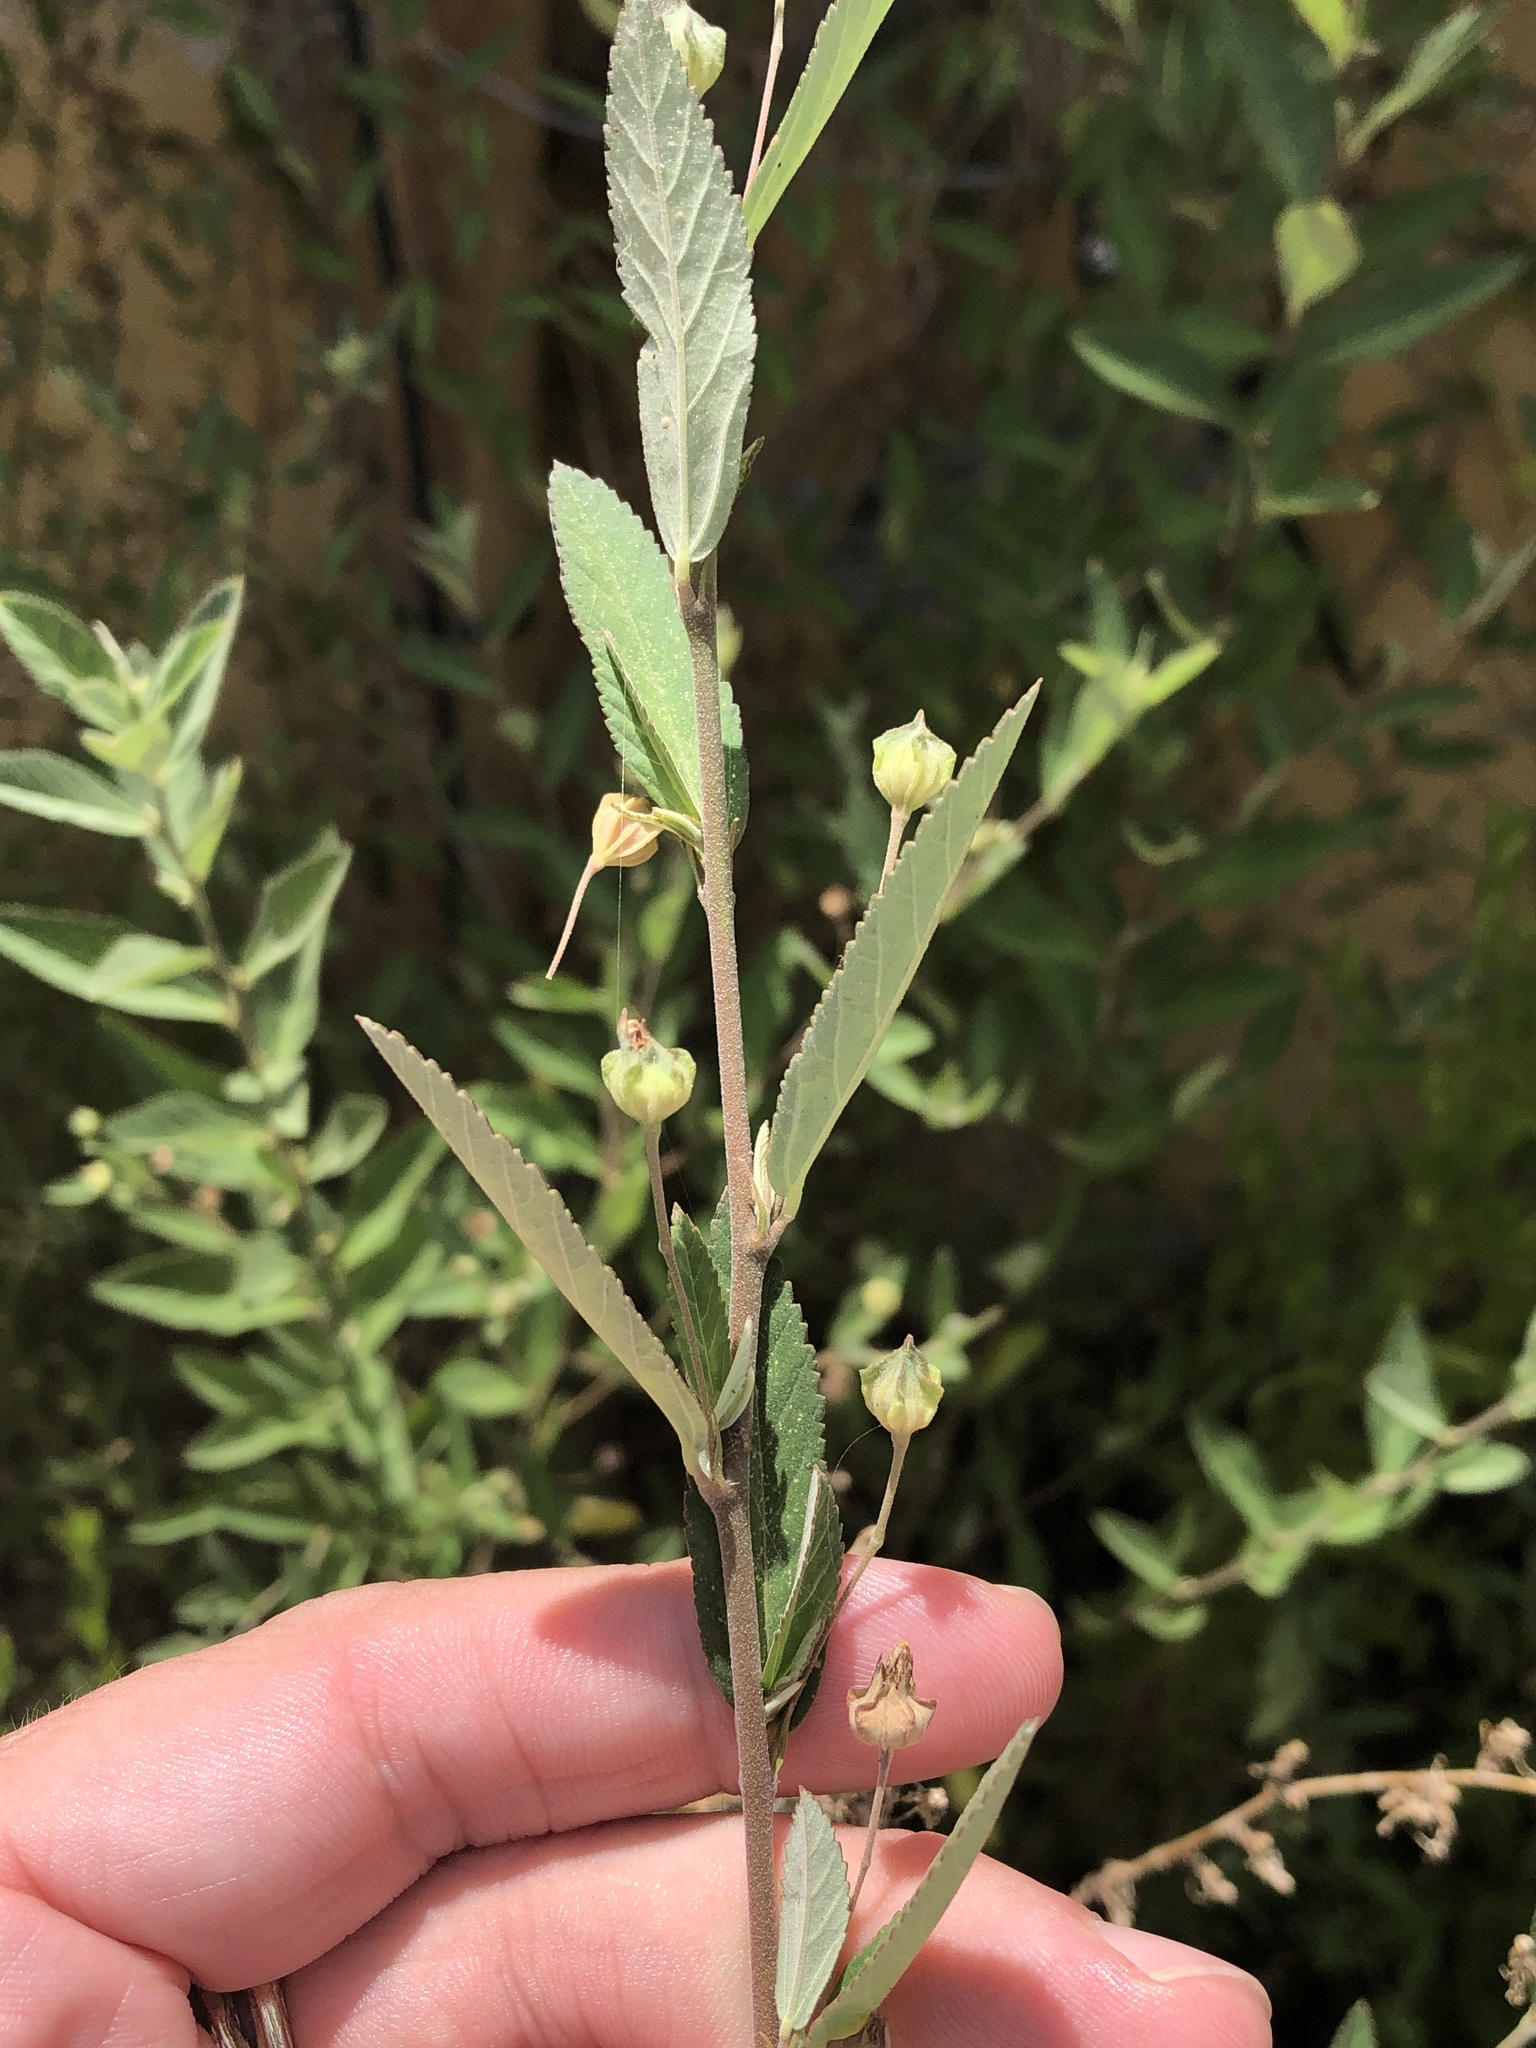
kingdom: Plantae
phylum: Tracheophyta
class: Magnoliopsida
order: Malvales
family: Malvaceae
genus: Sida
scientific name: Sida rhombifolia
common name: Queensland-hemp
